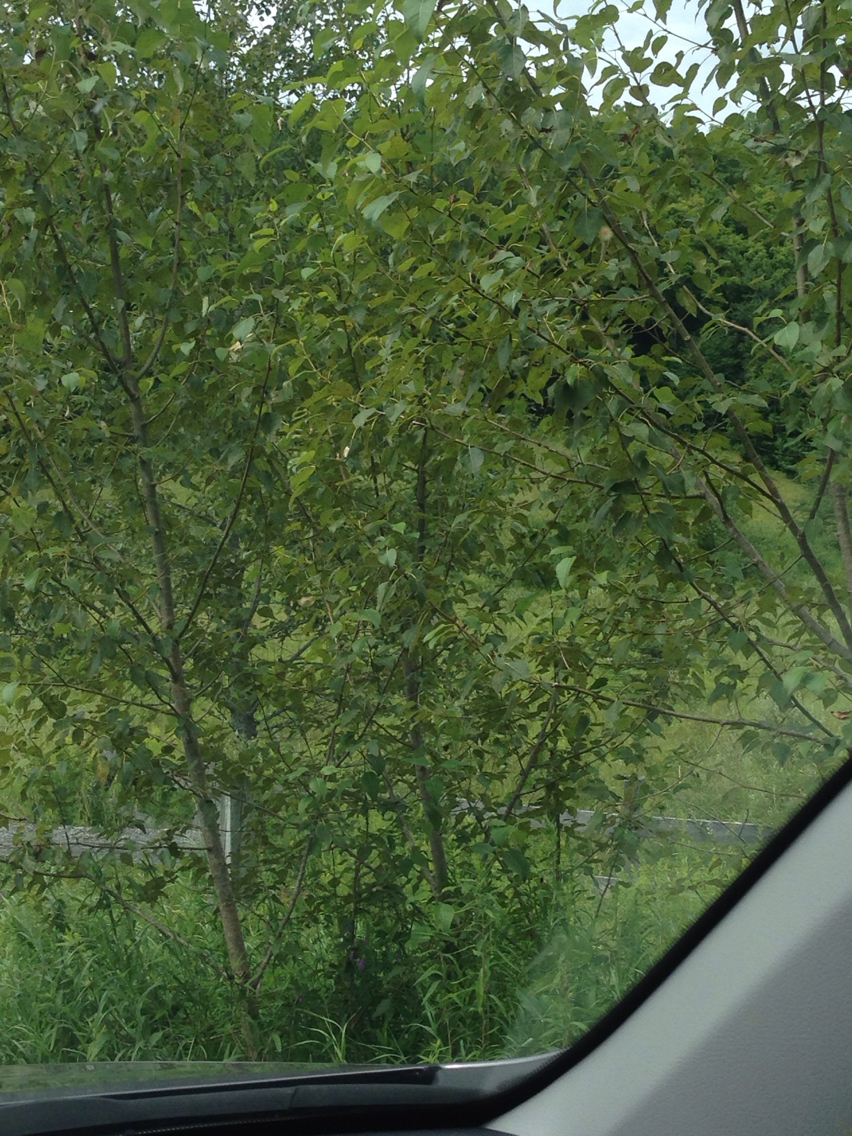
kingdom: Plantae
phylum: Tracheophyta
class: Magnoliopsida
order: Malpighiales
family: Salicaceae
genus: Populus
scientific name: Populus balsamifera
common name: Balsam poplar
